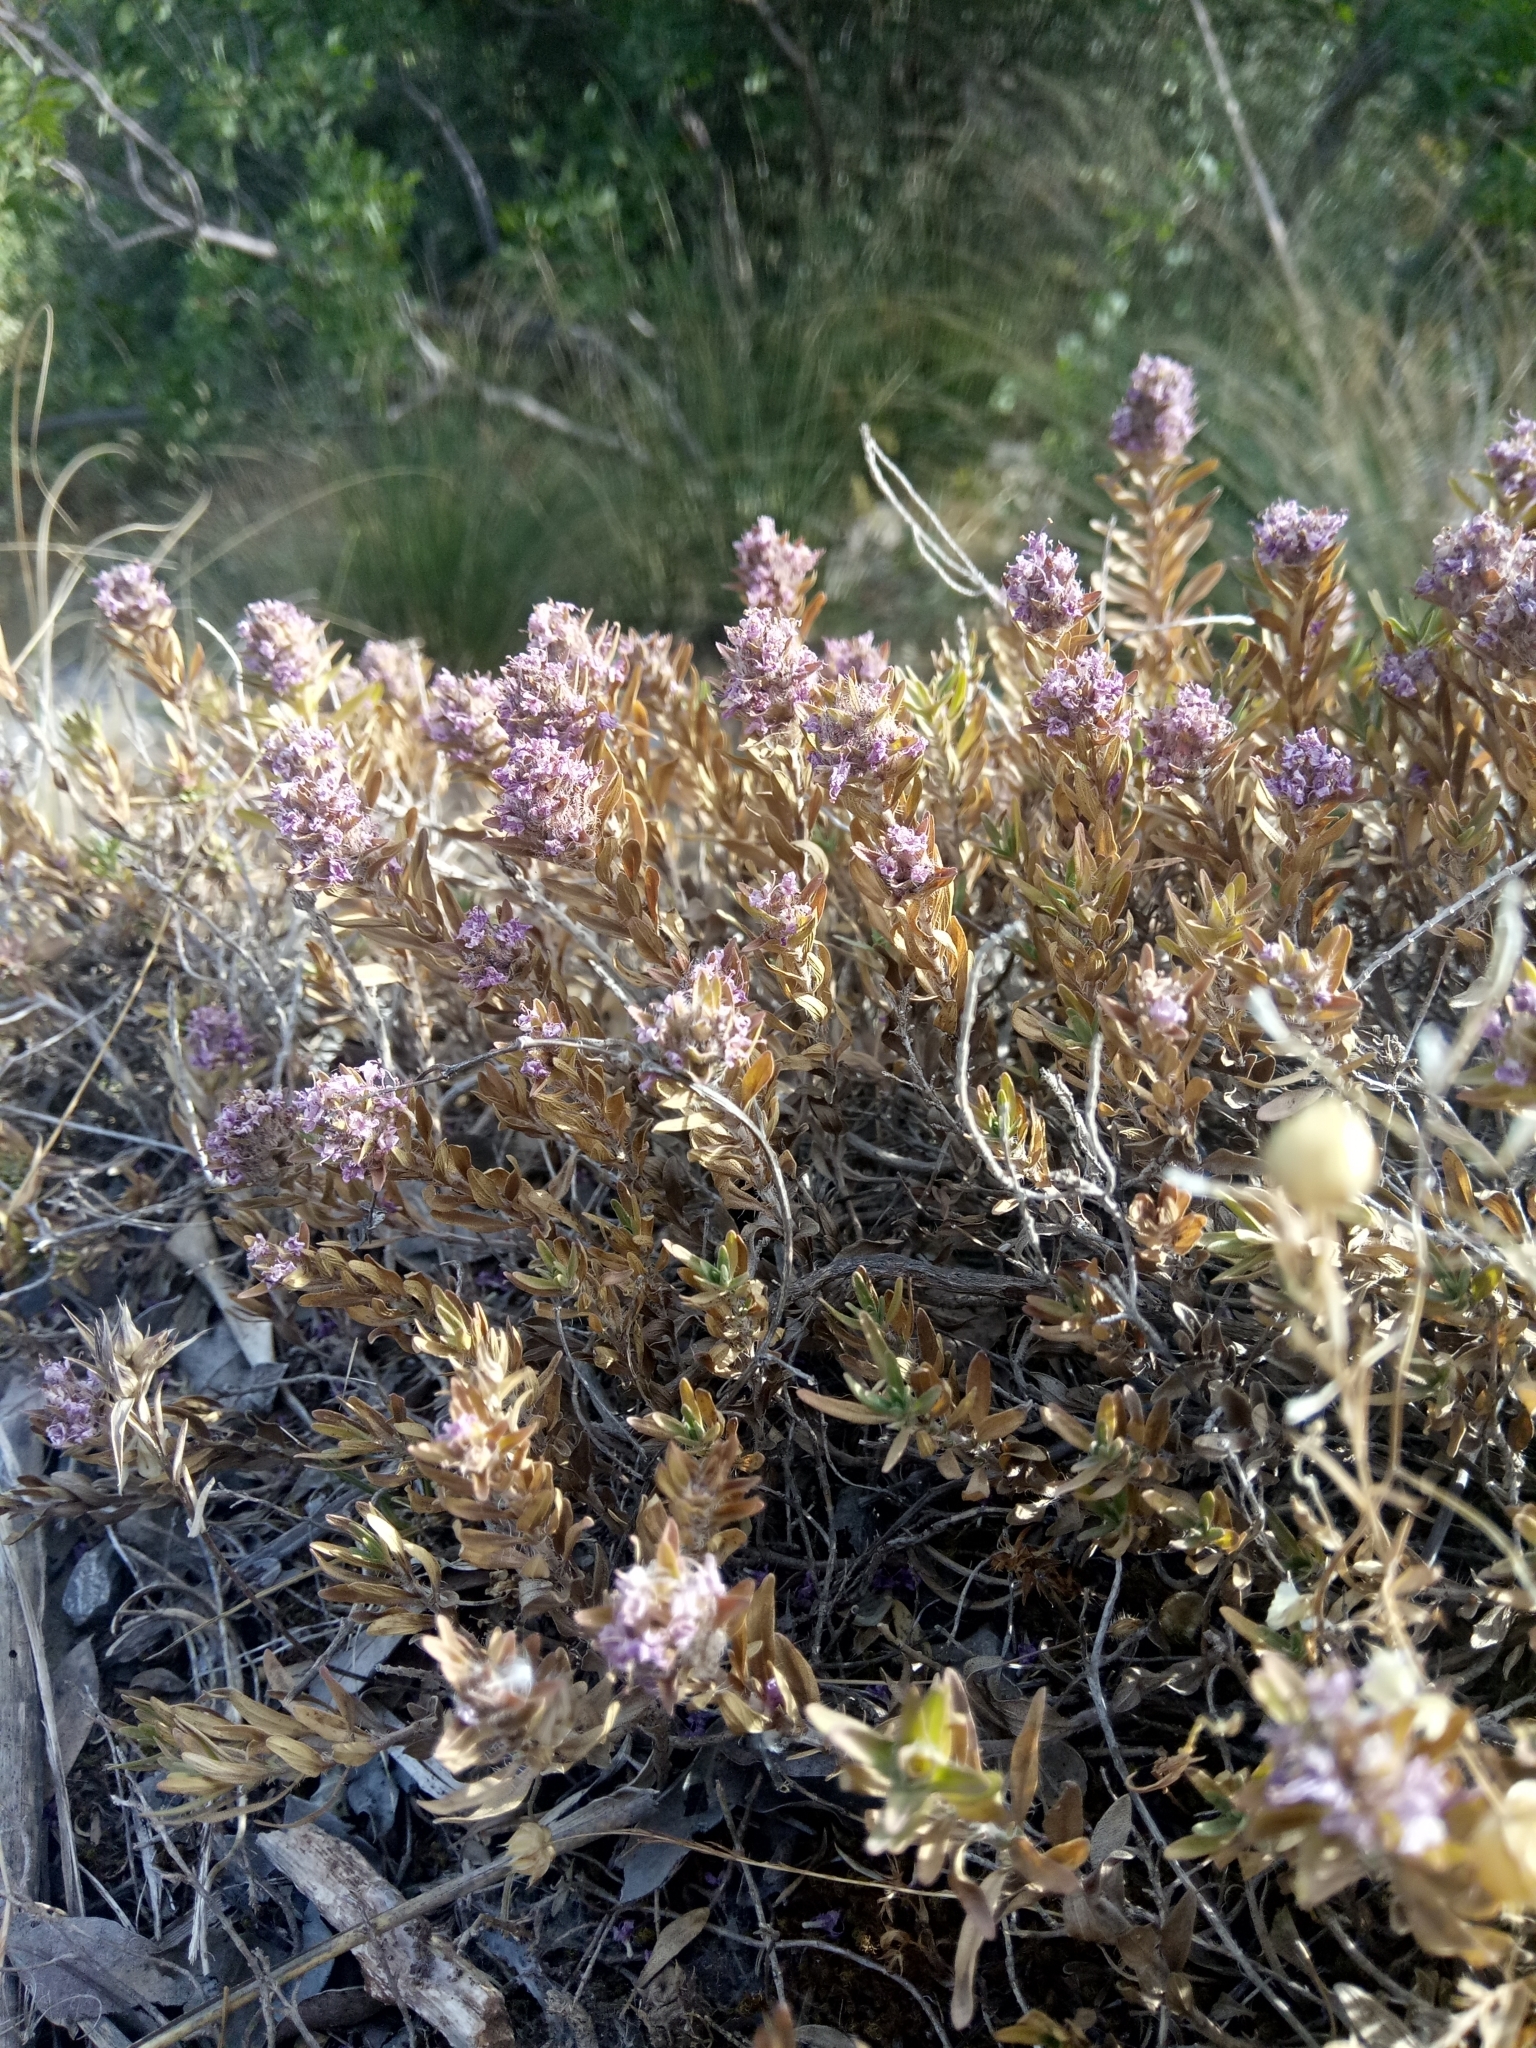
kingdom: Plantae
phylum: Tracheophyta
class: Magnoliopsida
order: Lamiales
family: Lamiaceae
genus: Thymus
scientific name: Thymus numidicus
